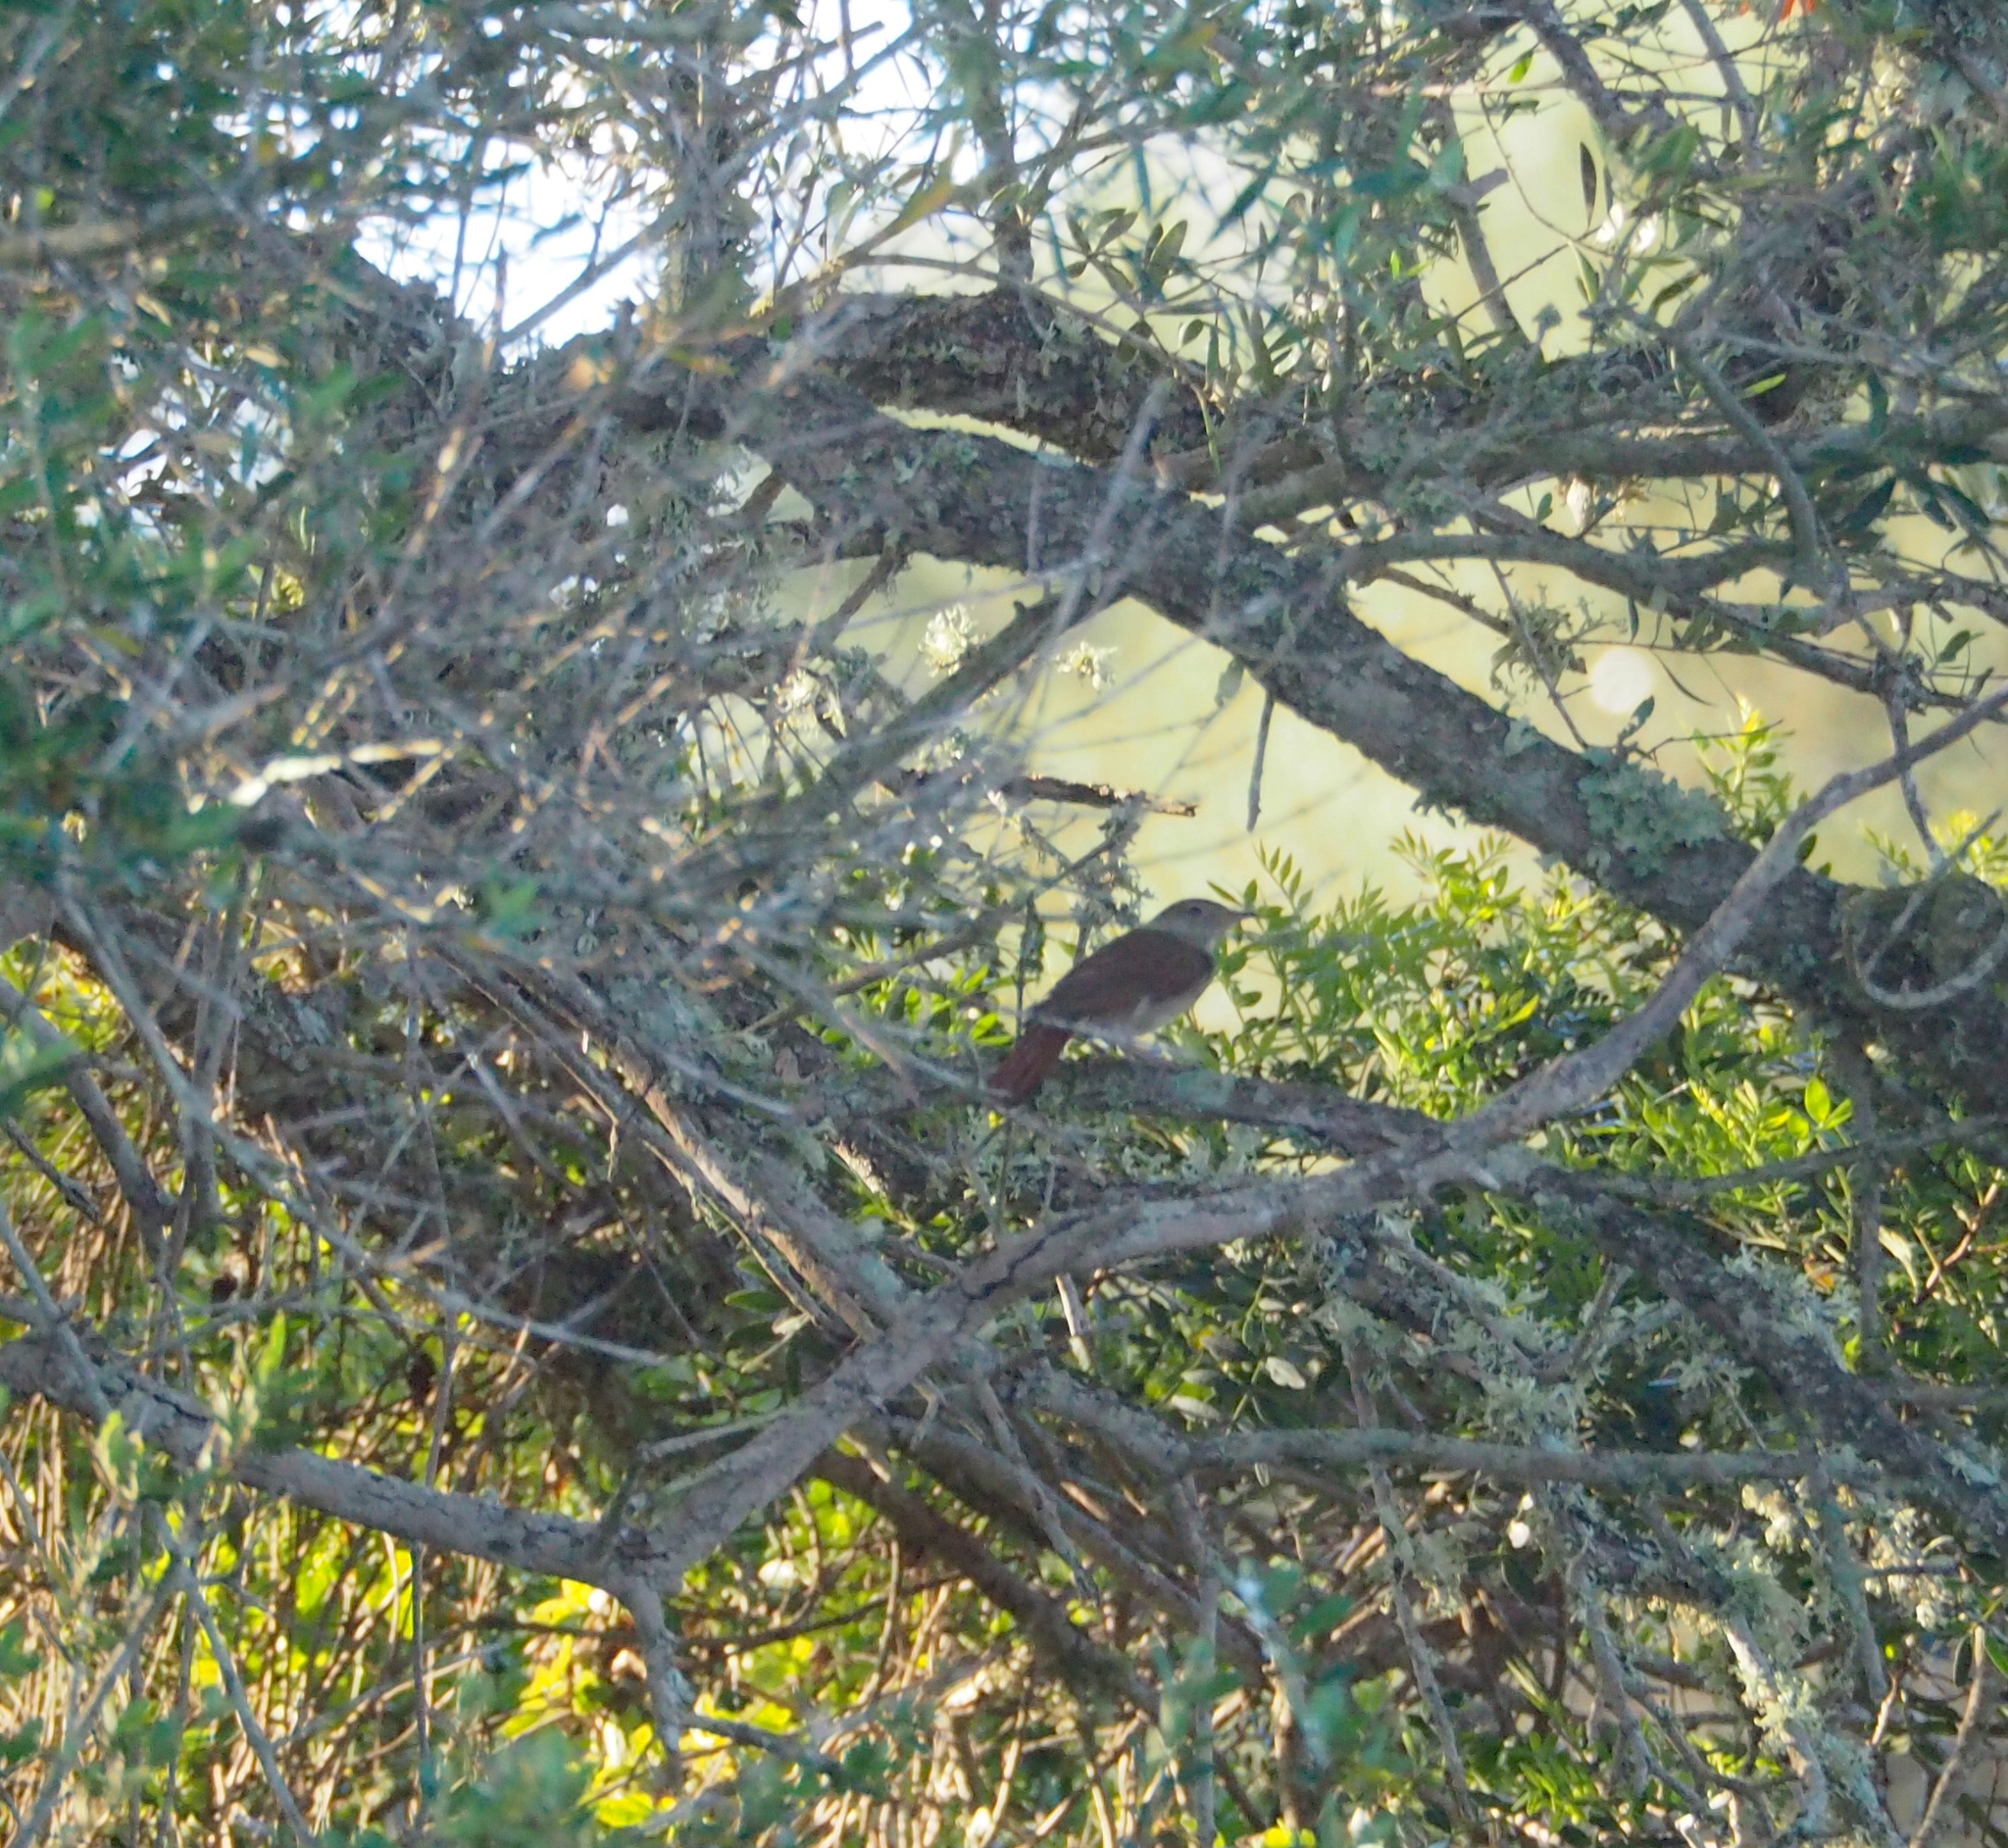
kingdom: Animalia
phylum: Chordata
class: Aves
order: Passeriformes
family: Muscicapidae
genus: Luscinia
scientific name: Luscinia megarhynchos
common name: Common nightingale
